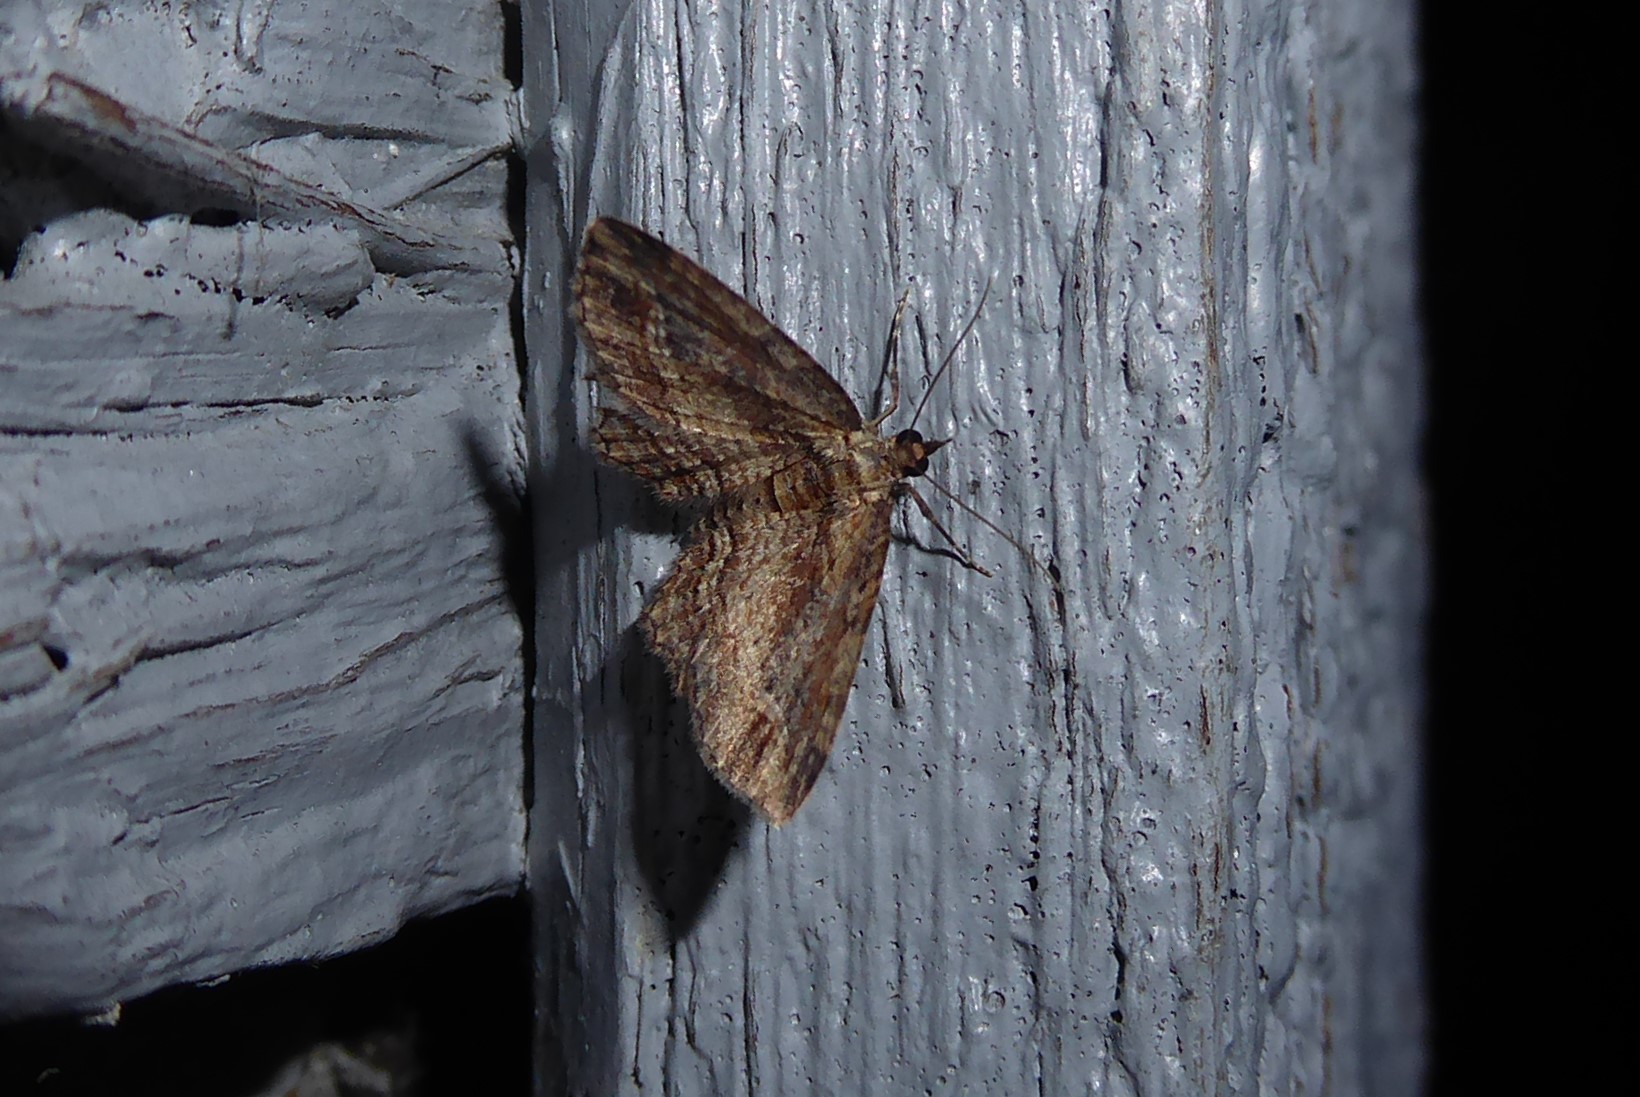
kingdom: Animalia
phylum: Arthropoda
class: Insecta
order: Lepidoptera
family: Geometridae
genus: Chloroclystis
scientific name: Chloroclystis filata
